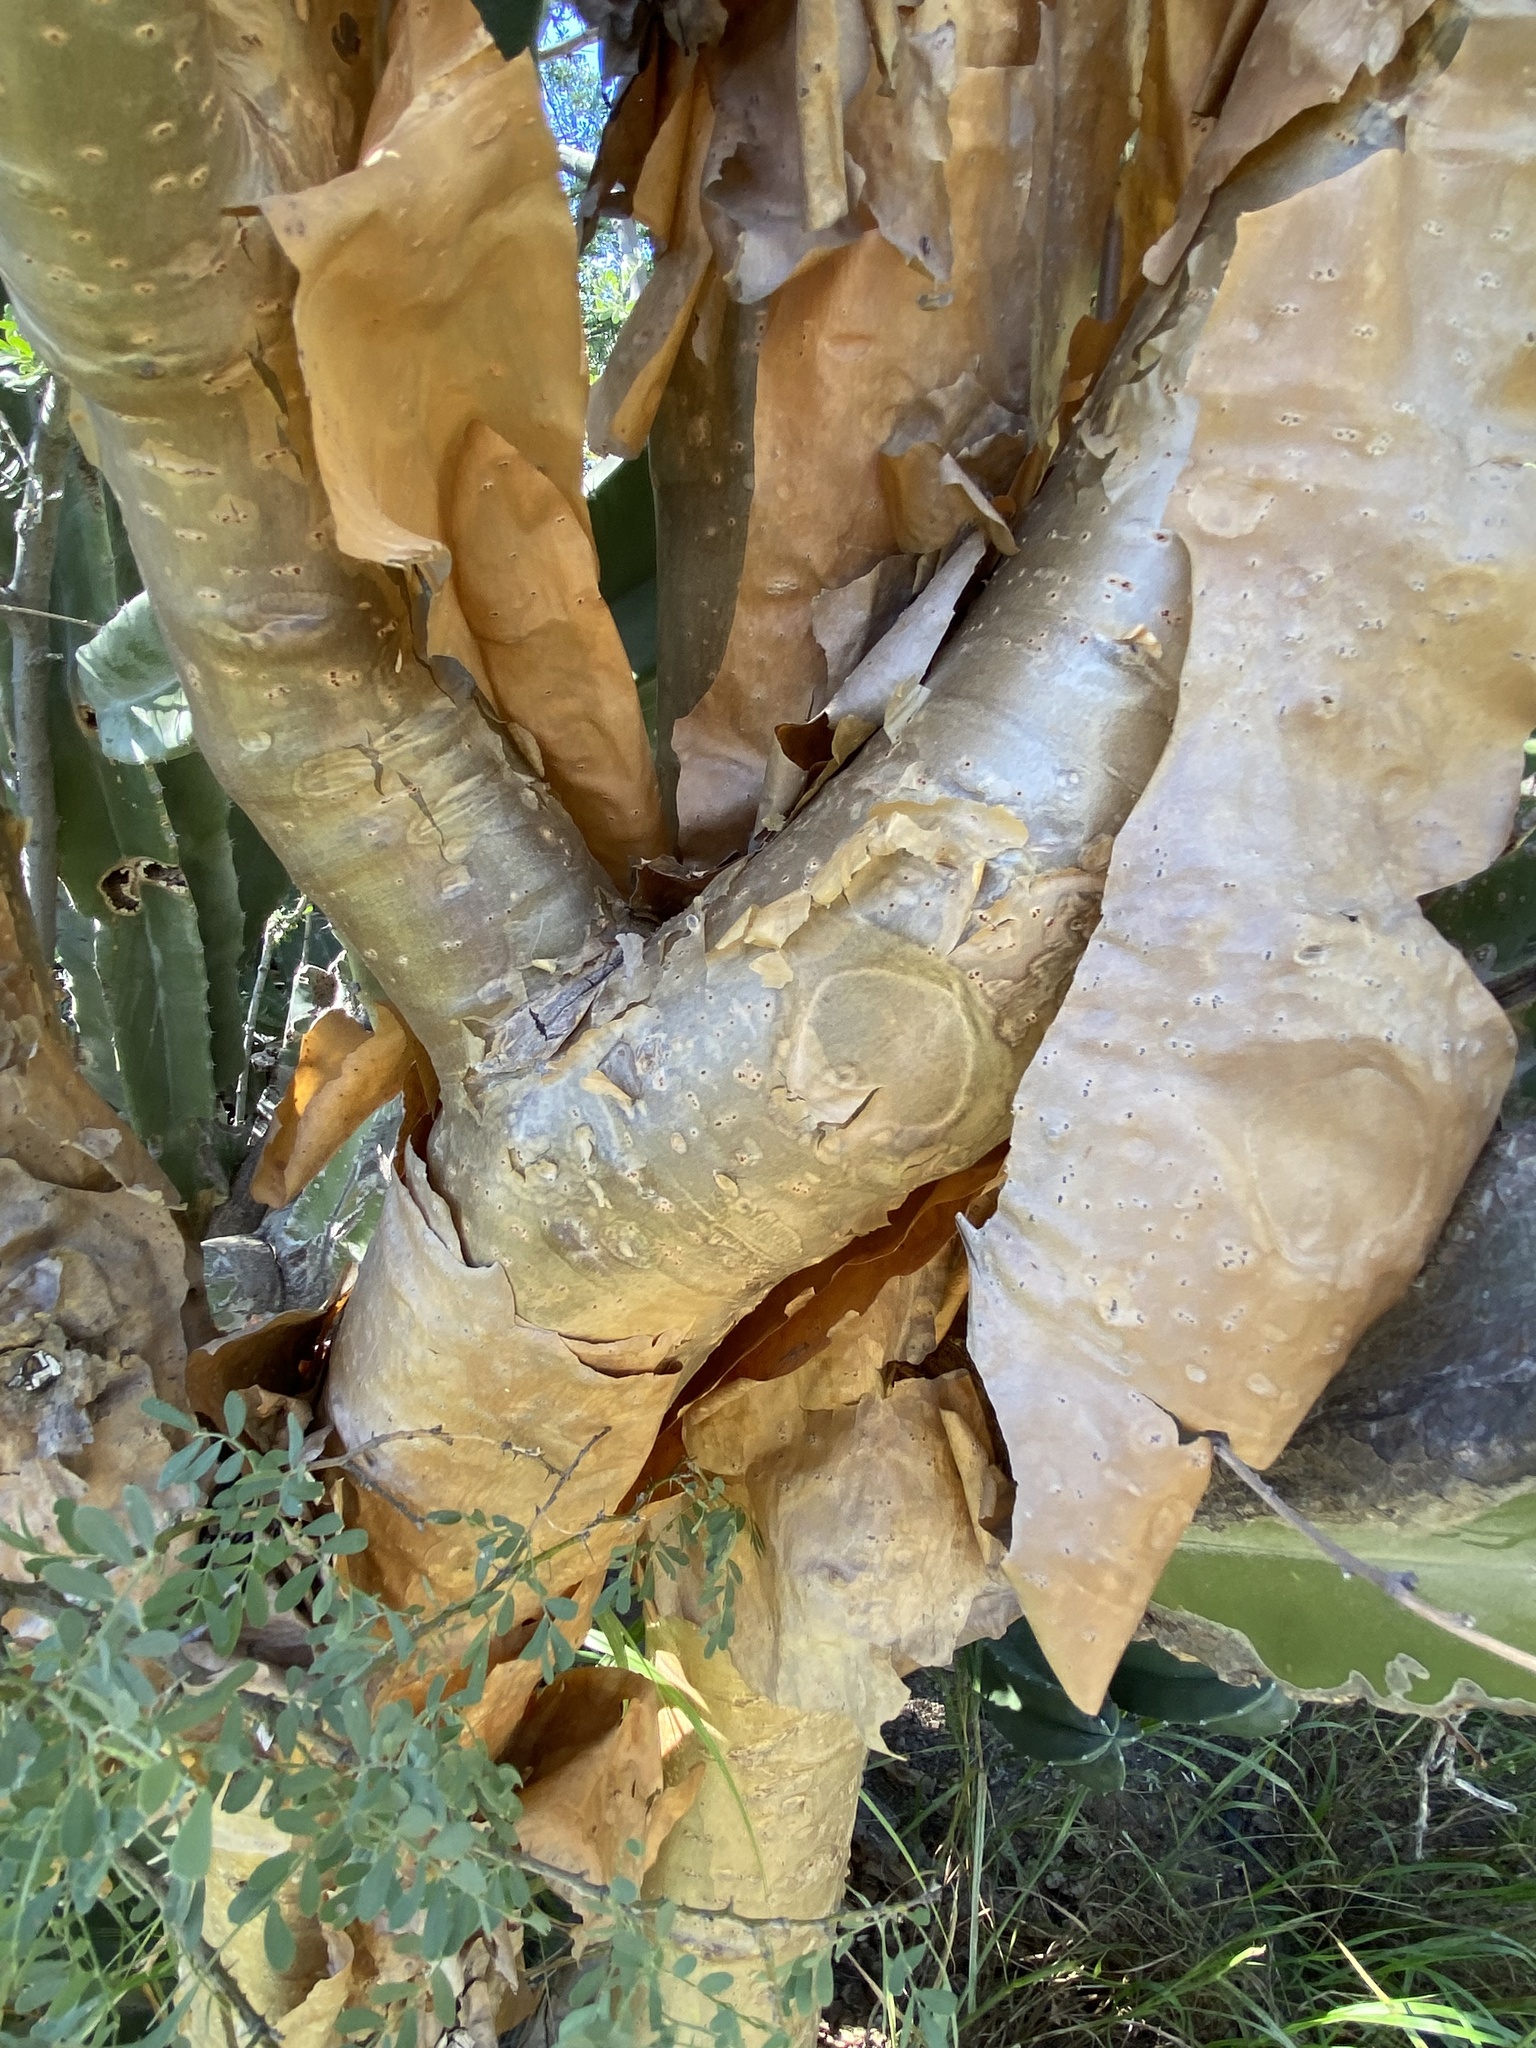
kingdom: Plantae
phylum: Tracheophyta
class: Magnoliopsida
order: Malpighiales
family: Euphorbiaceae
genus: Jatropha
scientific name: Jatropha cordata
